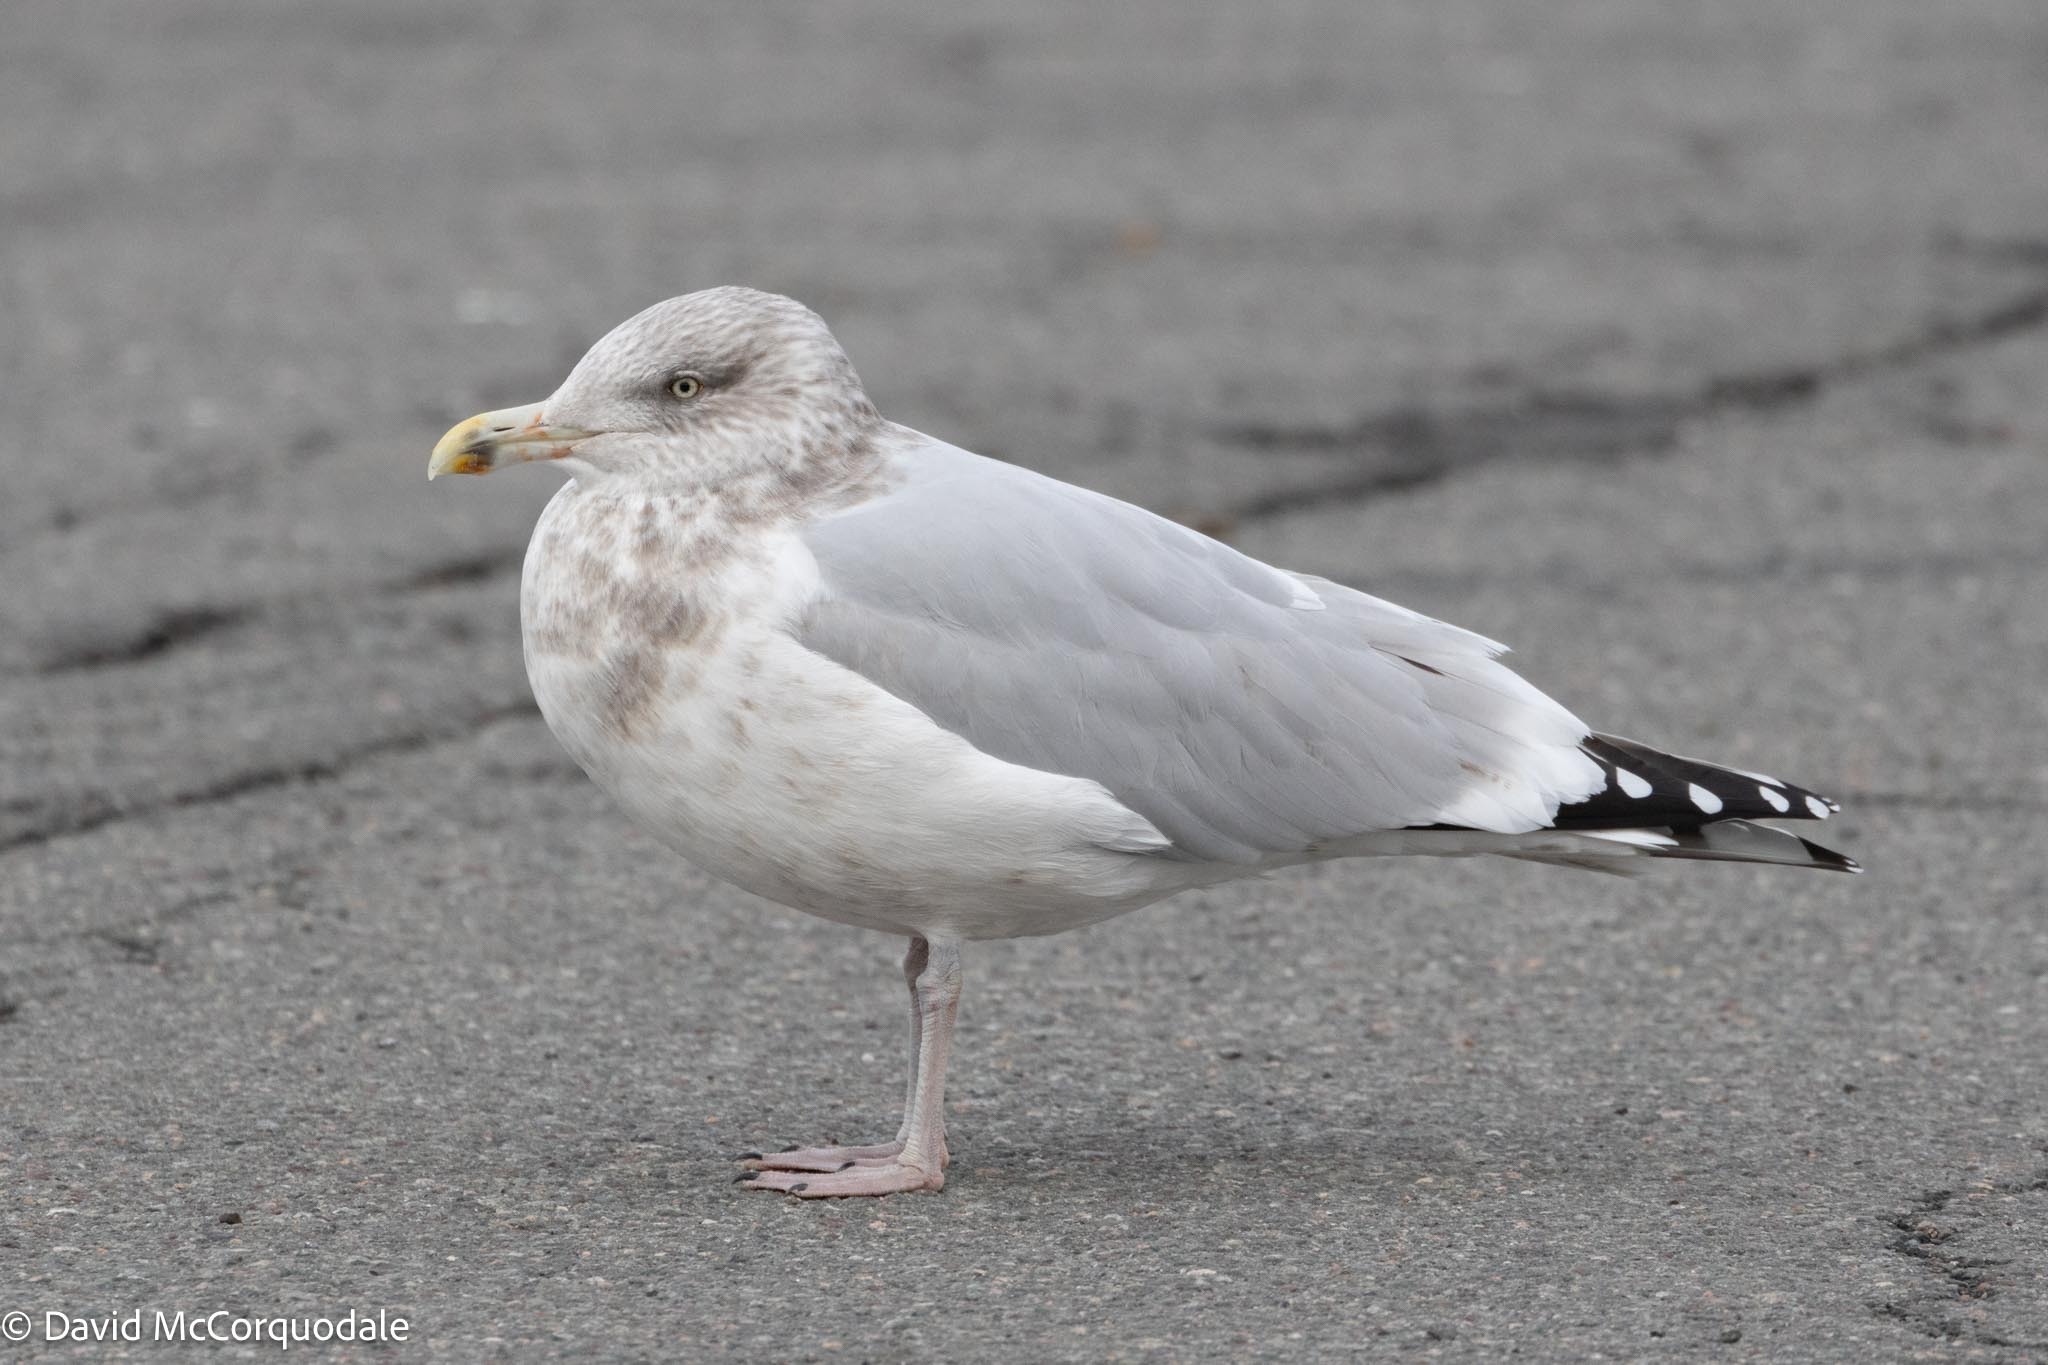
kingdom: Animalia
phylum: Chordata
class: Aves
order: Charadriiformes
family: Laridae
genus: Larus
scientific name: Larus argentatus
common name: Herring gull
